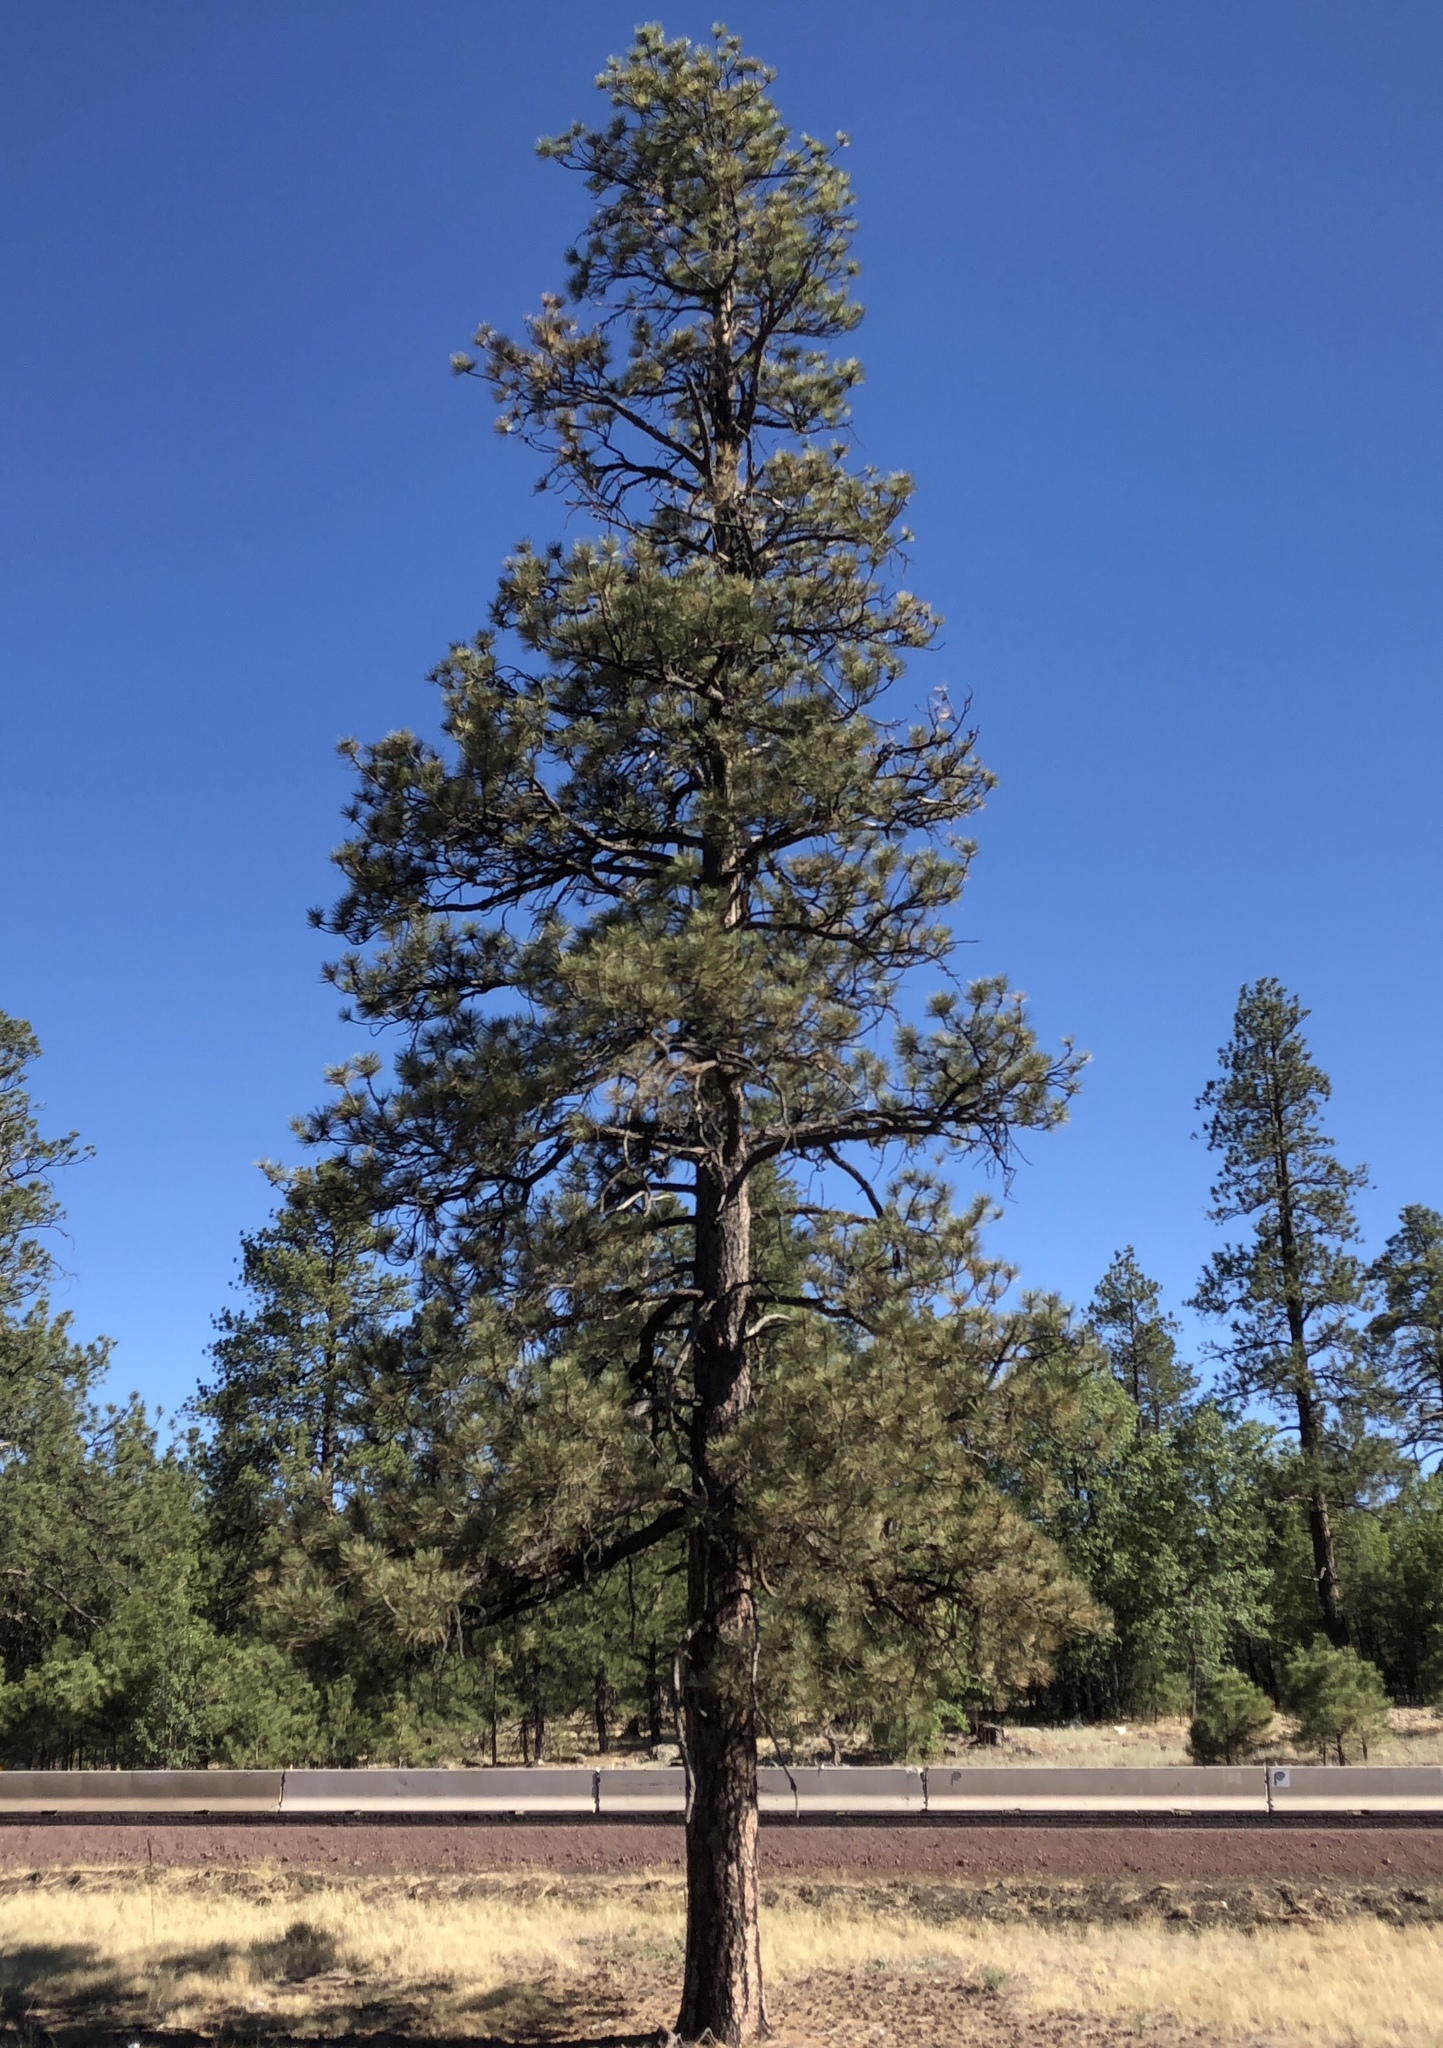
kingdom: Plantae
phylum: Tracheophyta
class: Pinopsida
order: Pinales
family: Pinaceae
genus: Pinus
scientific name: Pinus ponderosa
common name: Western yellow-pine
